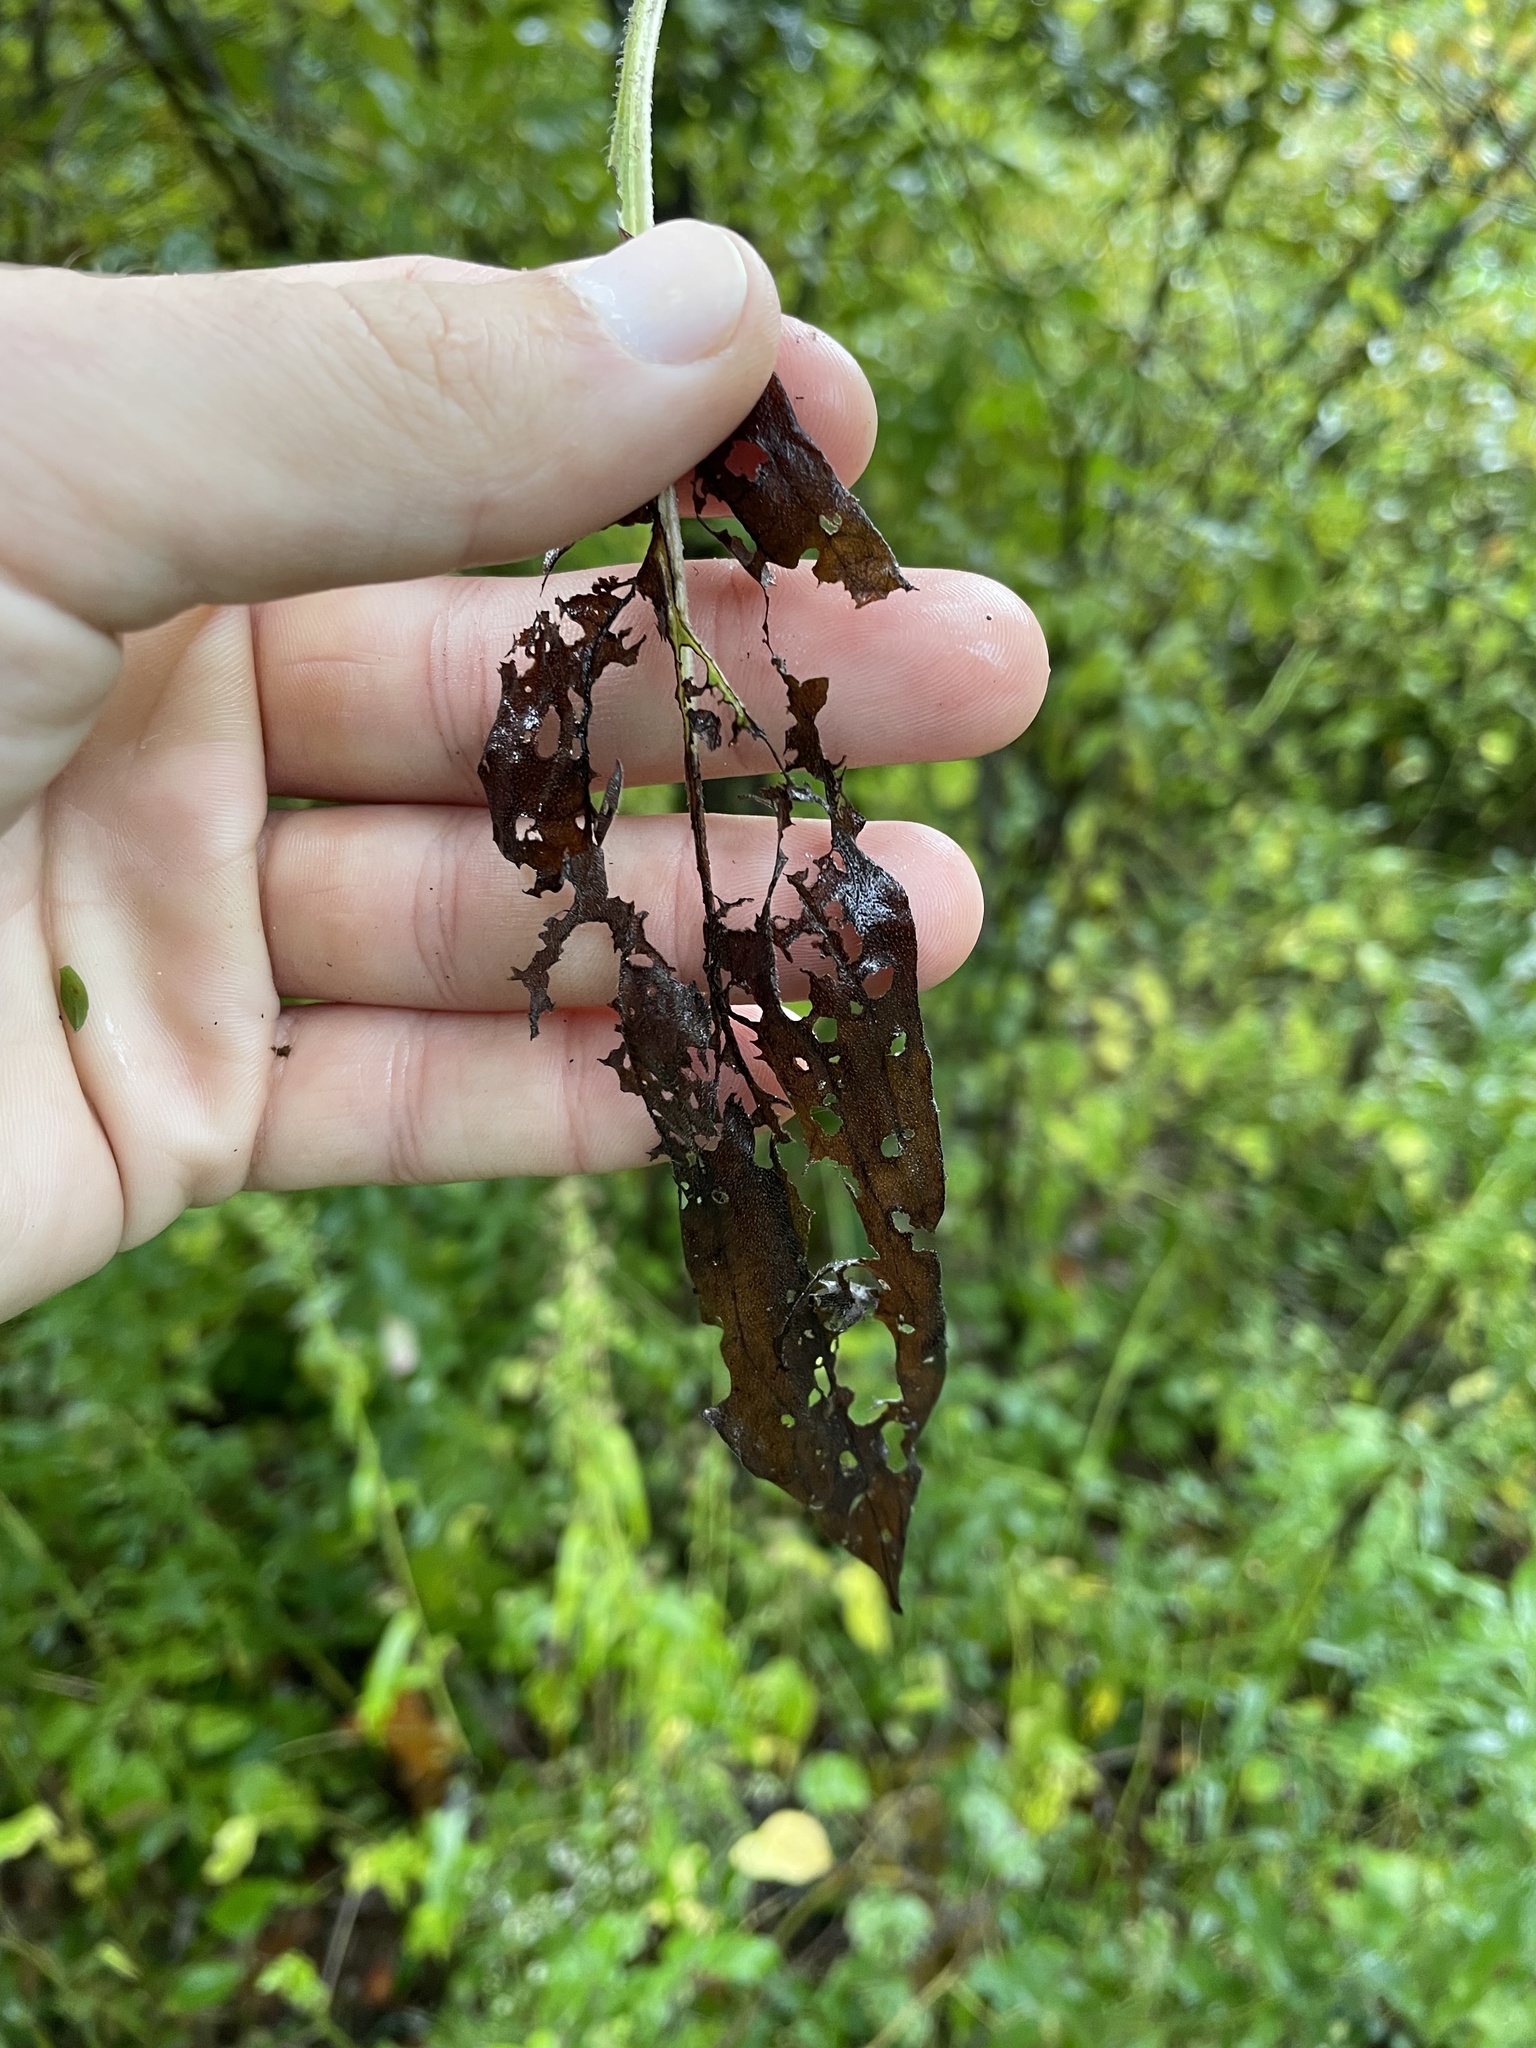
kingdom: Plantae
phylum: Tracheophyta
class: Magnoliopsida
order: Boraginales
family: Boraginaceae
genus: Hackelia
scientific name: Hackelia virginiana
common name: Beggar's-lice
